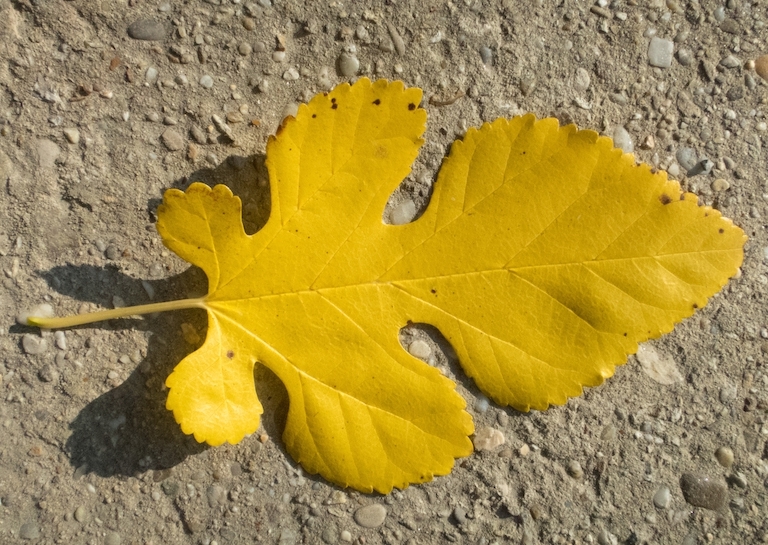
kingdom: Plantae
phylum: Tracheophyta
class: Magnoliopsida
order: Rosales
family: Moraceae
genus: Morus
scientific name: Morus alba
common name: White mulberry
